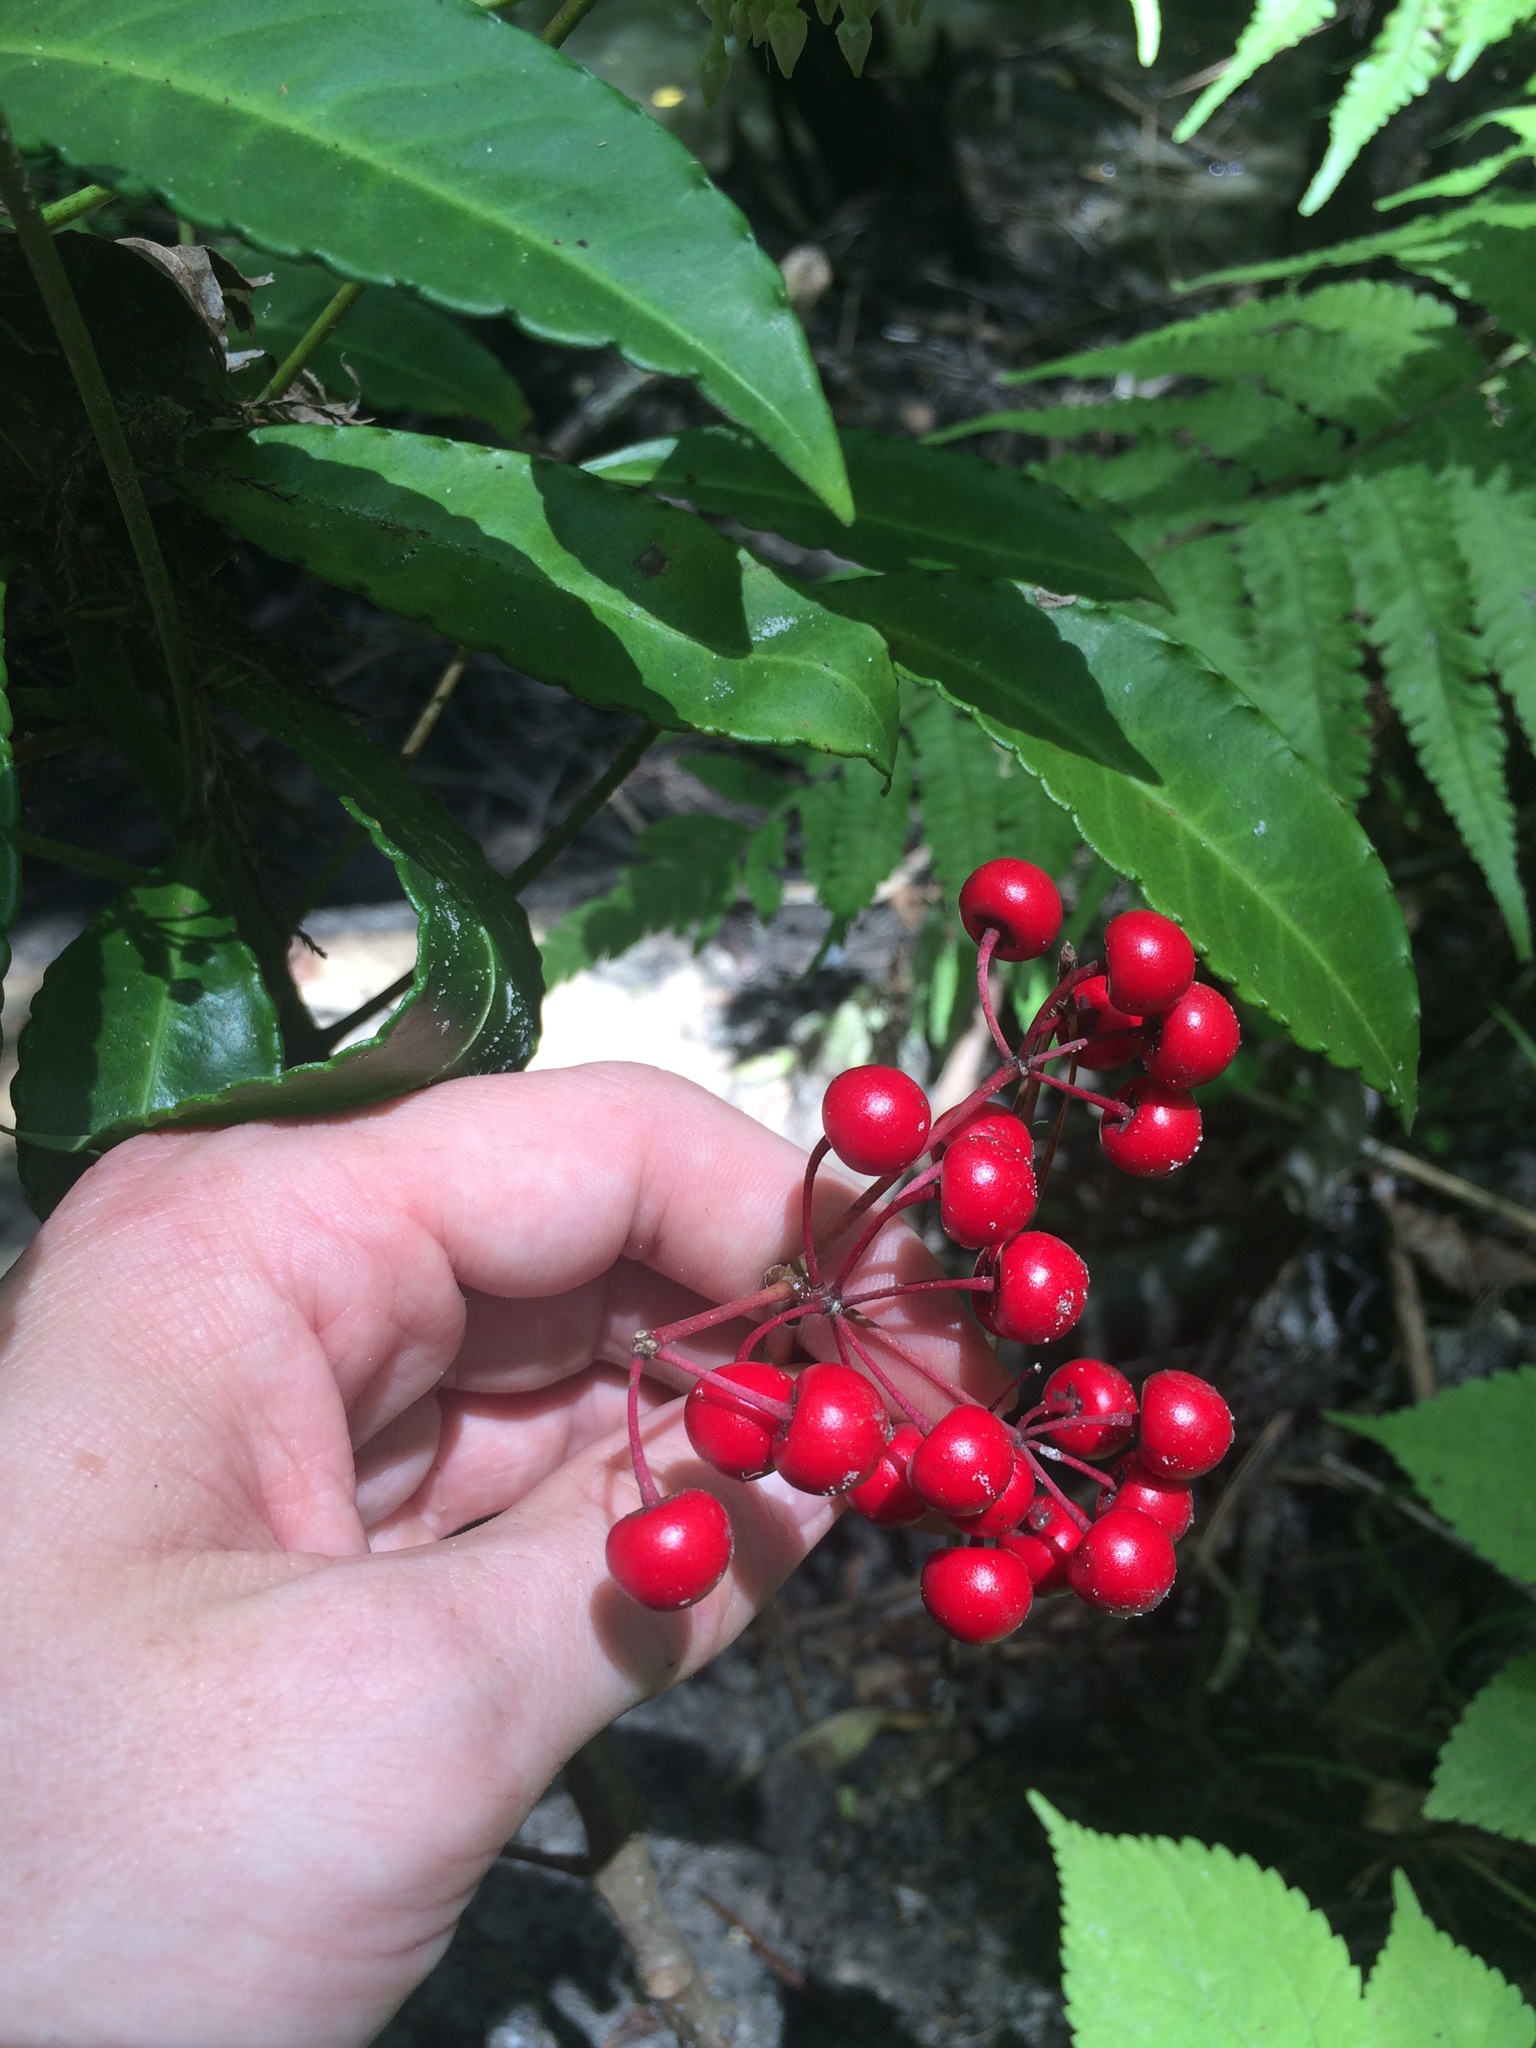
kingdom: Plantae
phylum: Tracheophyta
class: Magnoliopsida
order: Ericales
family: Primulaceae
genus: Ardisia
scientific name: Ardisia crenata
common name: Hen's eyes
